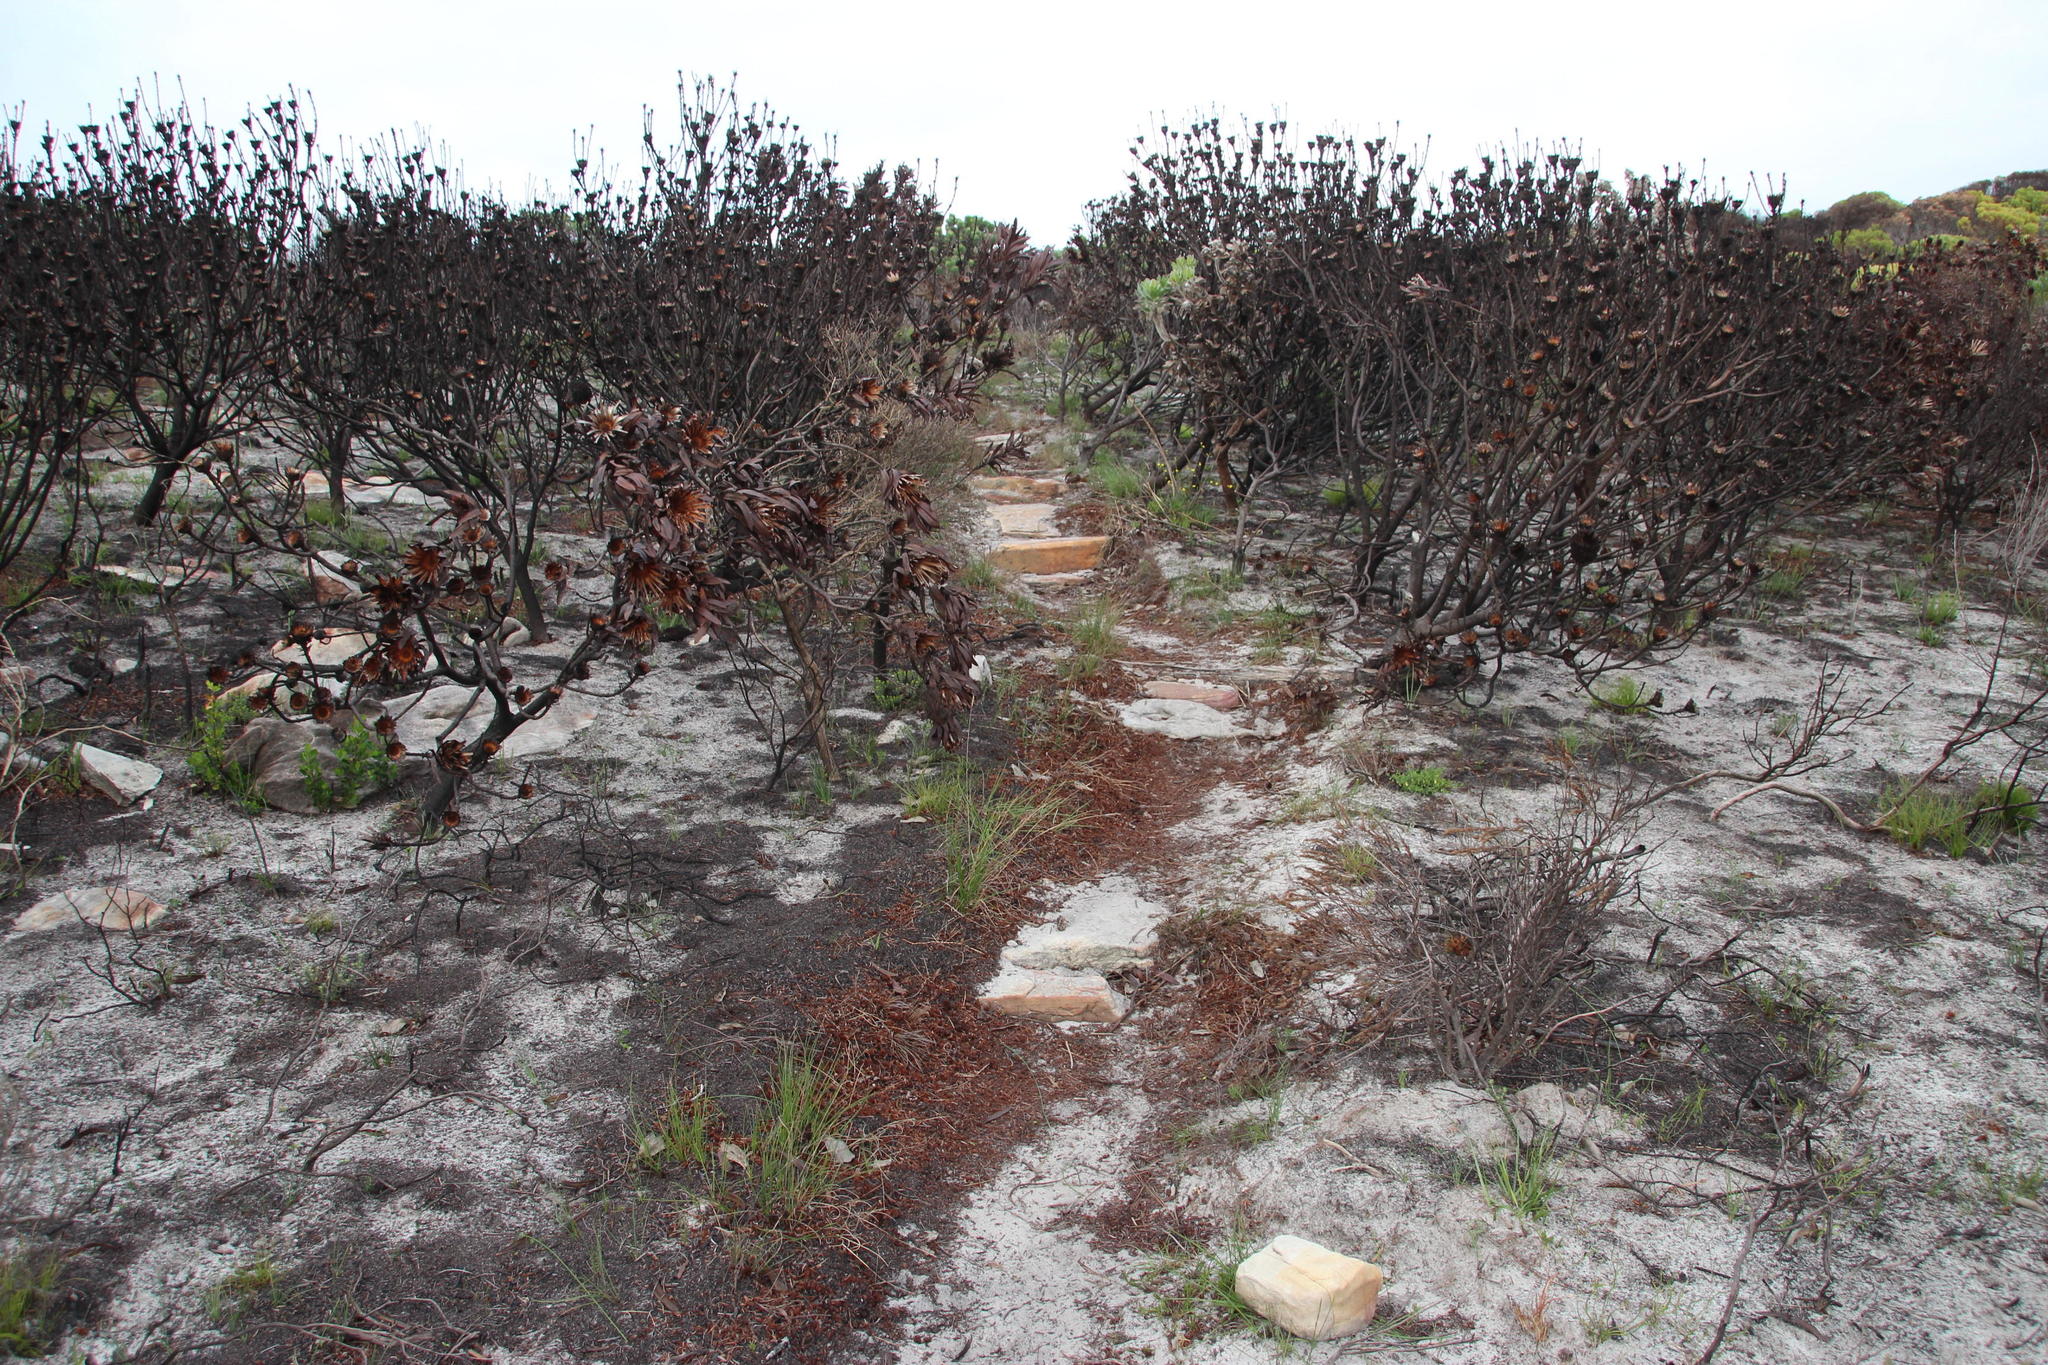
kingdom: Plantae
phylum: Tracheophyta
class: Magnoliopsida
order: Proteales
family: Proteaceae
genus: Protea
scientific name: Protea lepidocarpodendron
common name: Black-bearded protea
